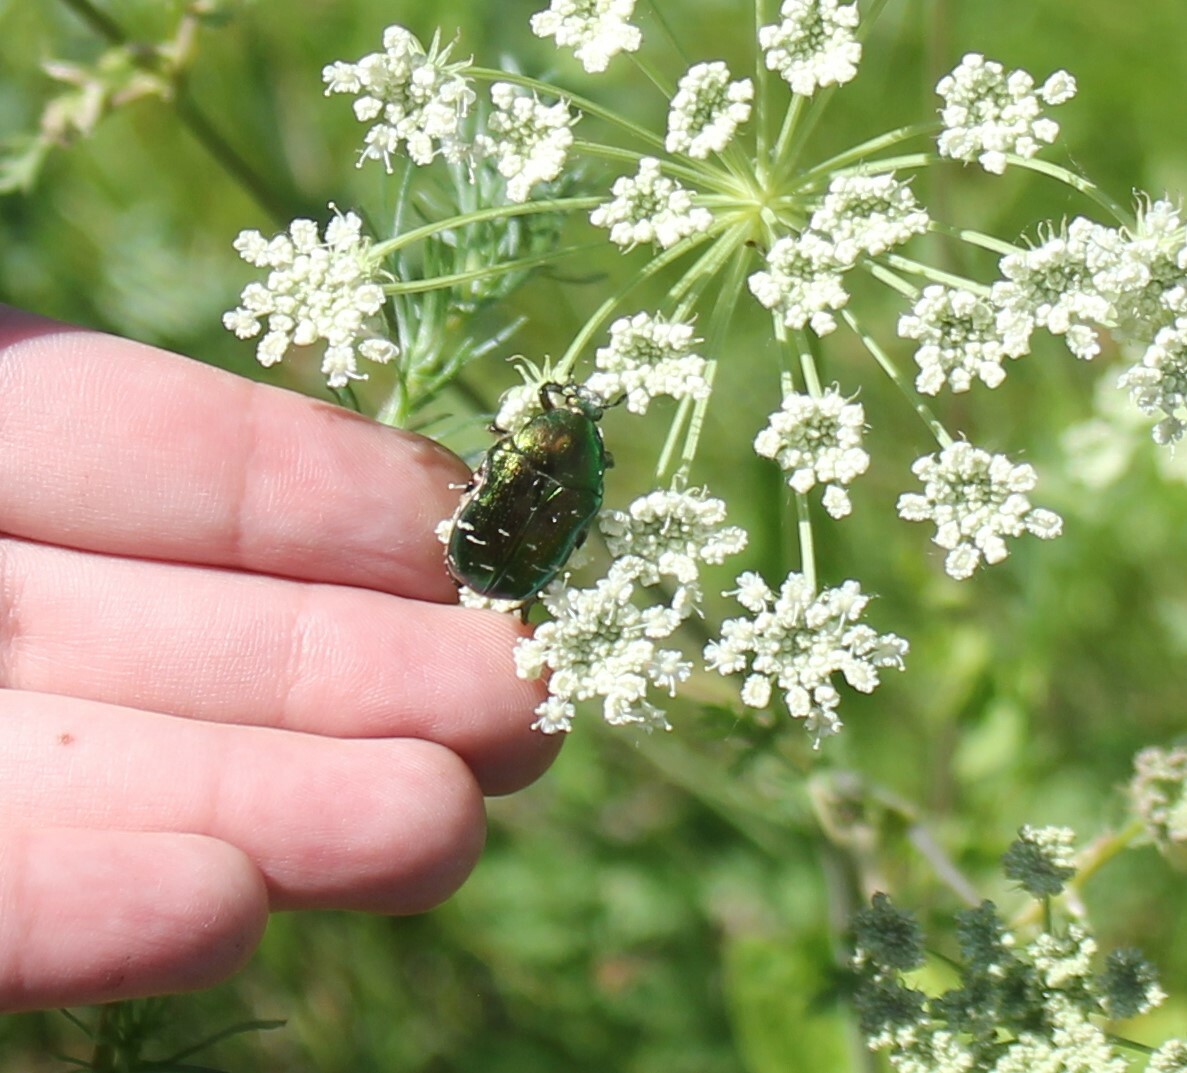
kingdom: Animalia
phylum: Arthropoda
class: Insecta
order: Coleoptera
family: Scarabaeidae
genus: Cetonia
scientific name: Cetonia aurata
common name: Rose chafer
